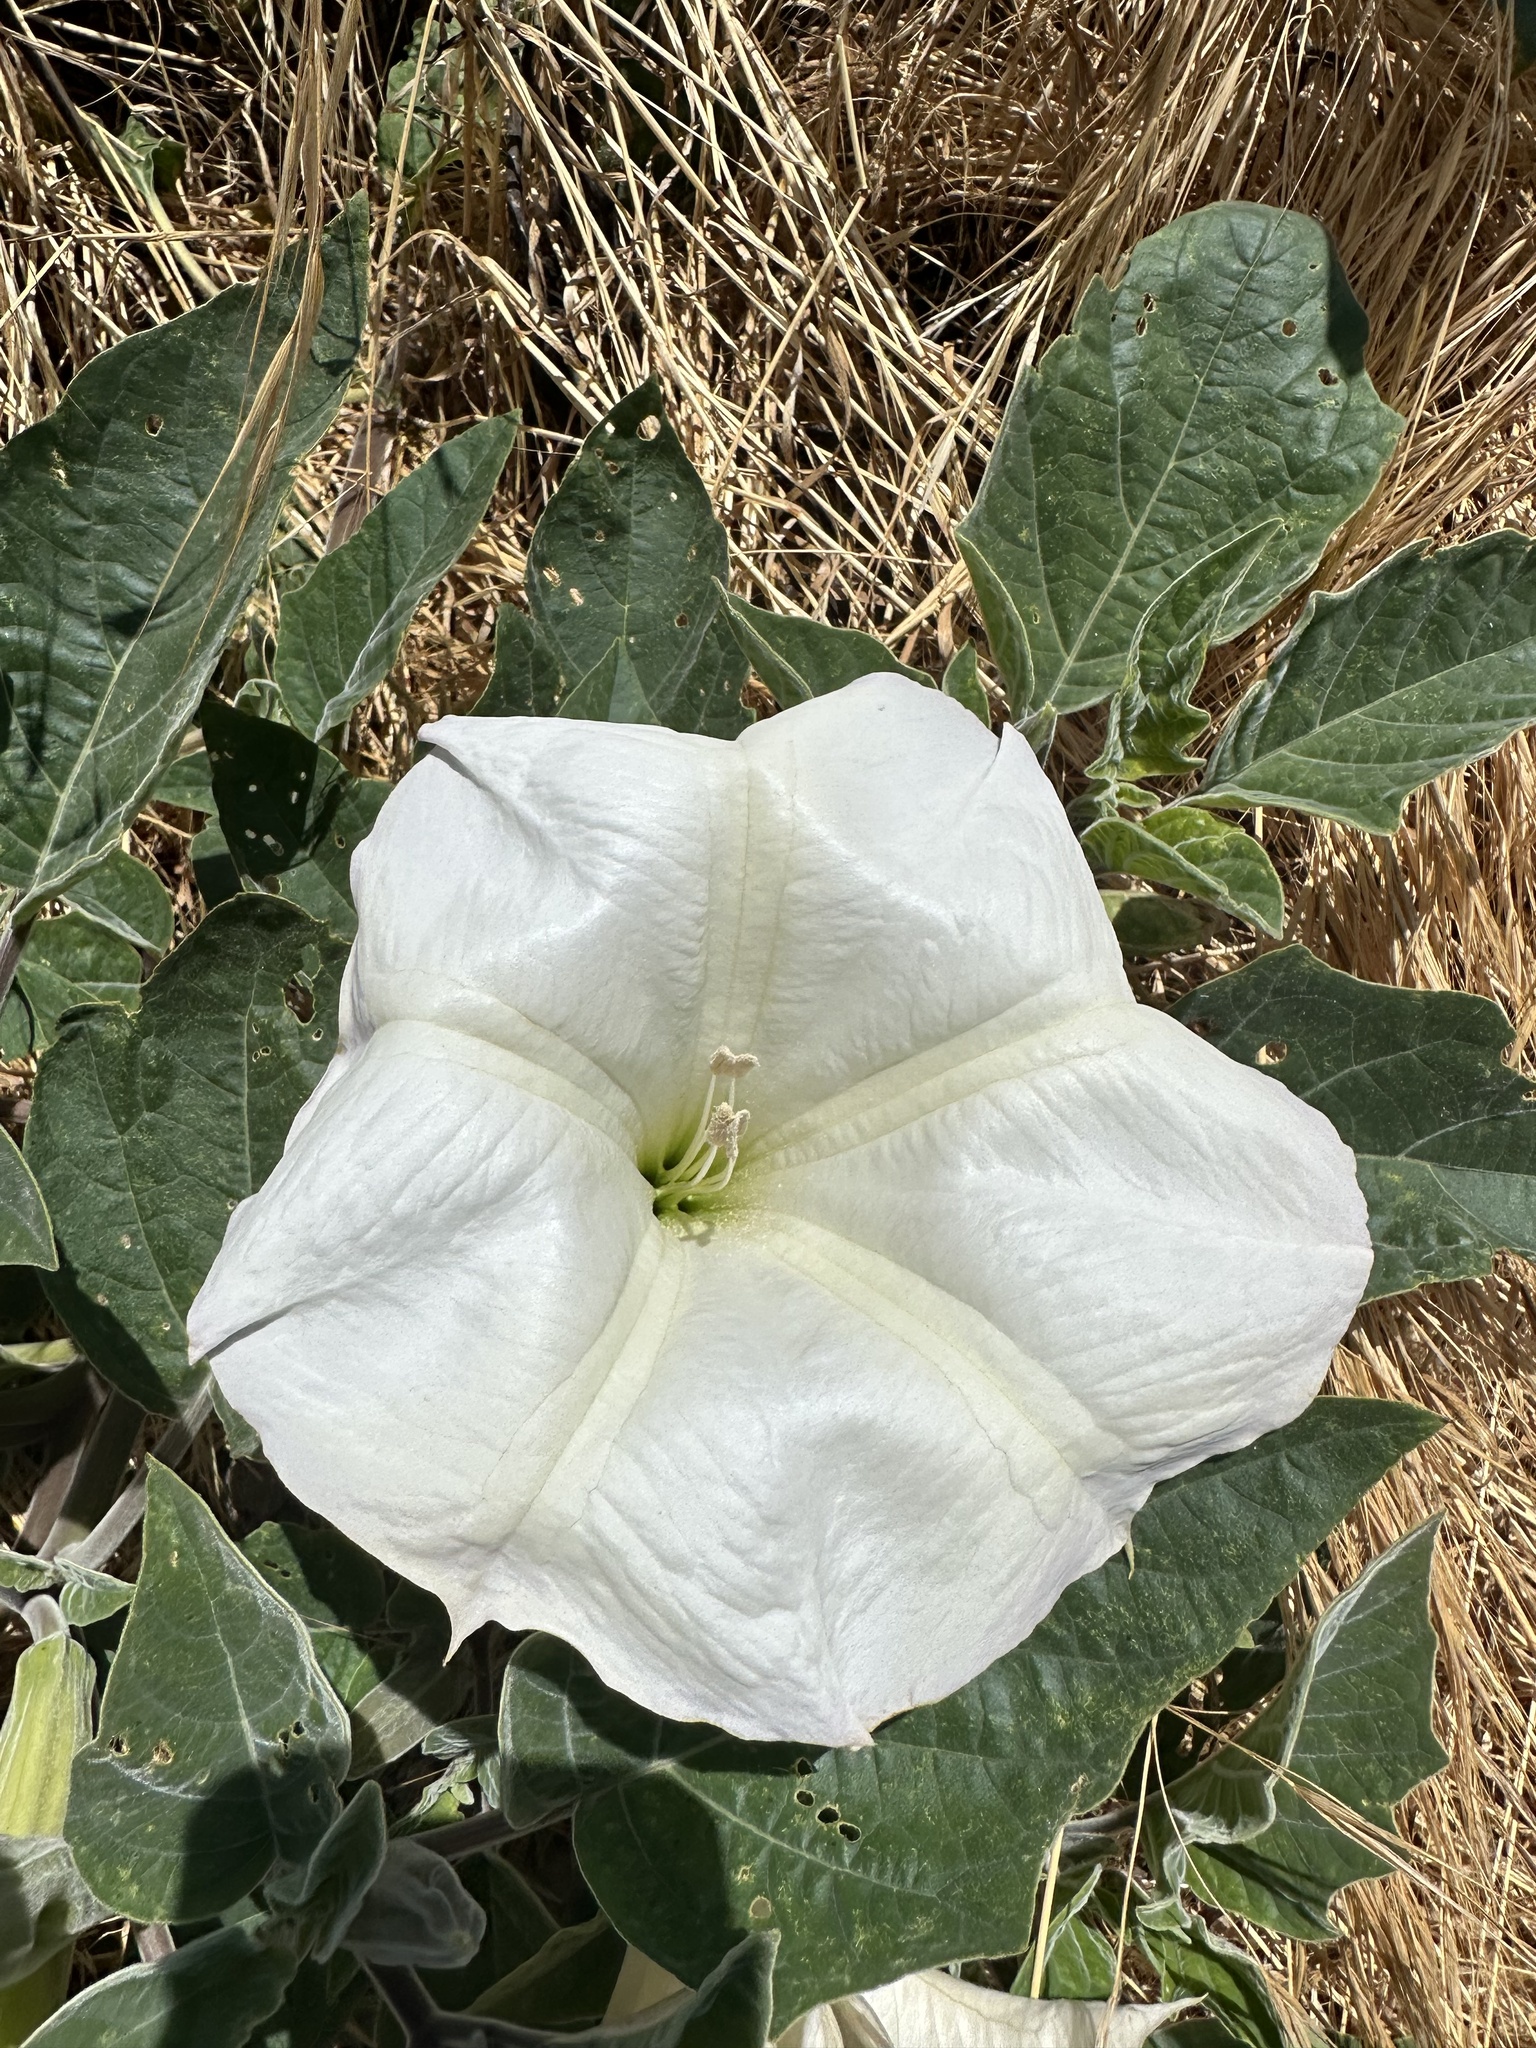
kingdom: Plantae
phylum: Tracheophyta
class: Magnoliopsida
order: Solanales
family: Solanaceae
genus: Datura
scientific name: Datura wrightii
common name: Sacred thorn-apple
